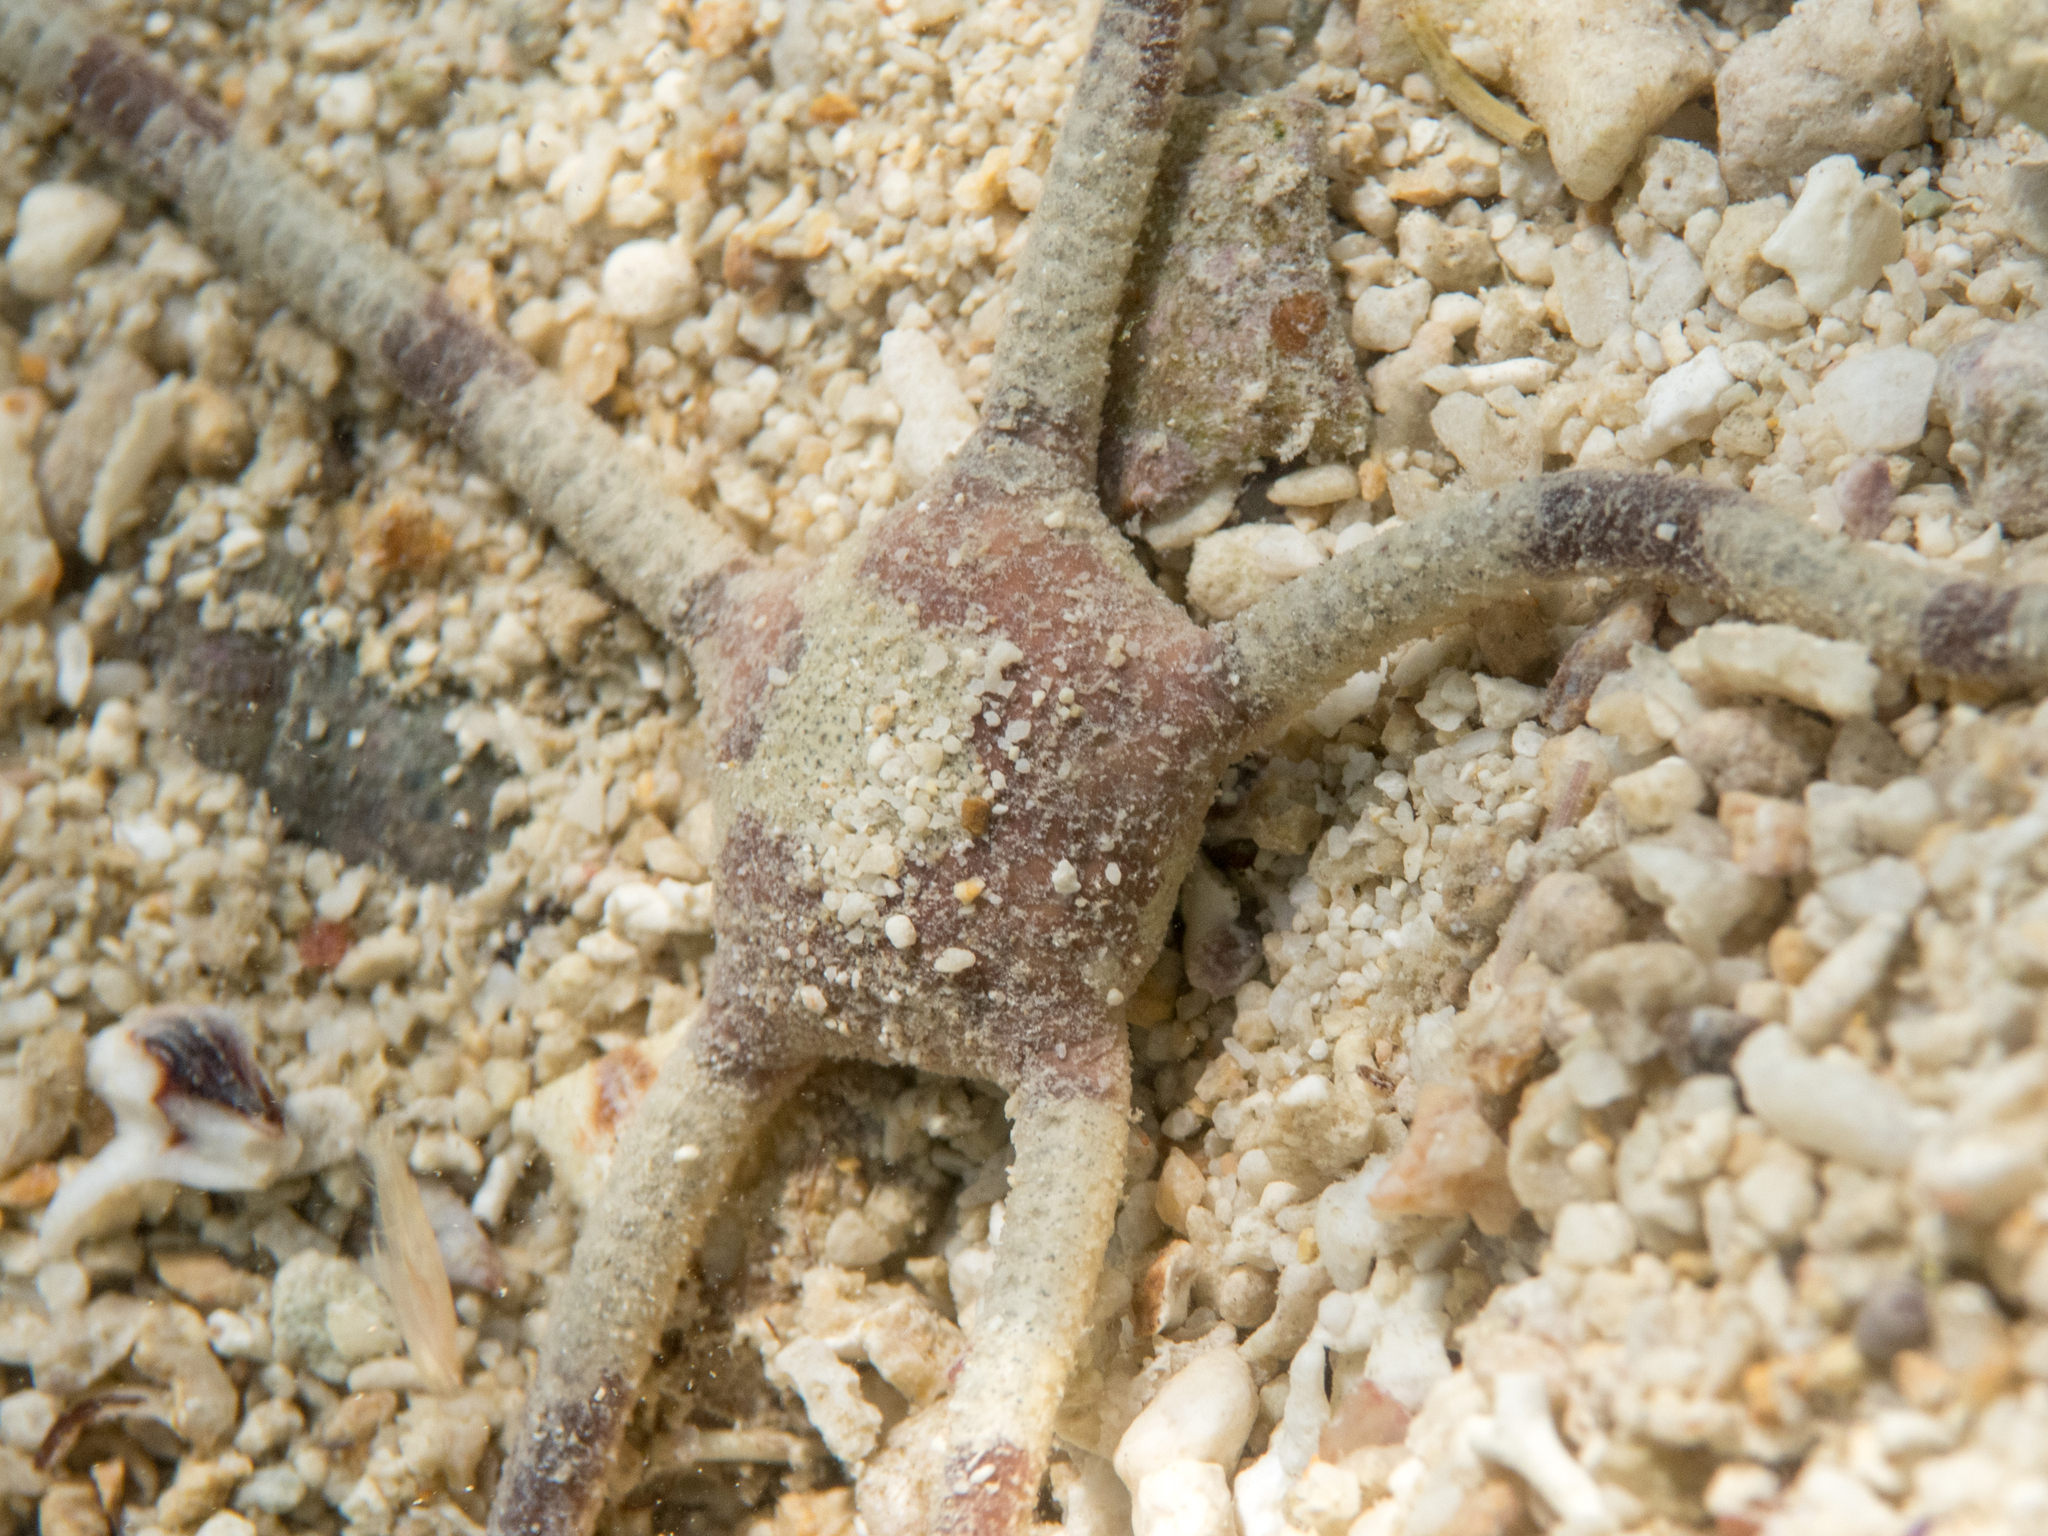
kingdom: Animalia
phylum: Echinodermata
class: Ophiuroidea
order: Amphilepidida
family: Ophiolepididae
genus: Ophiolepis
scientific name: Ophiolepis cincta
